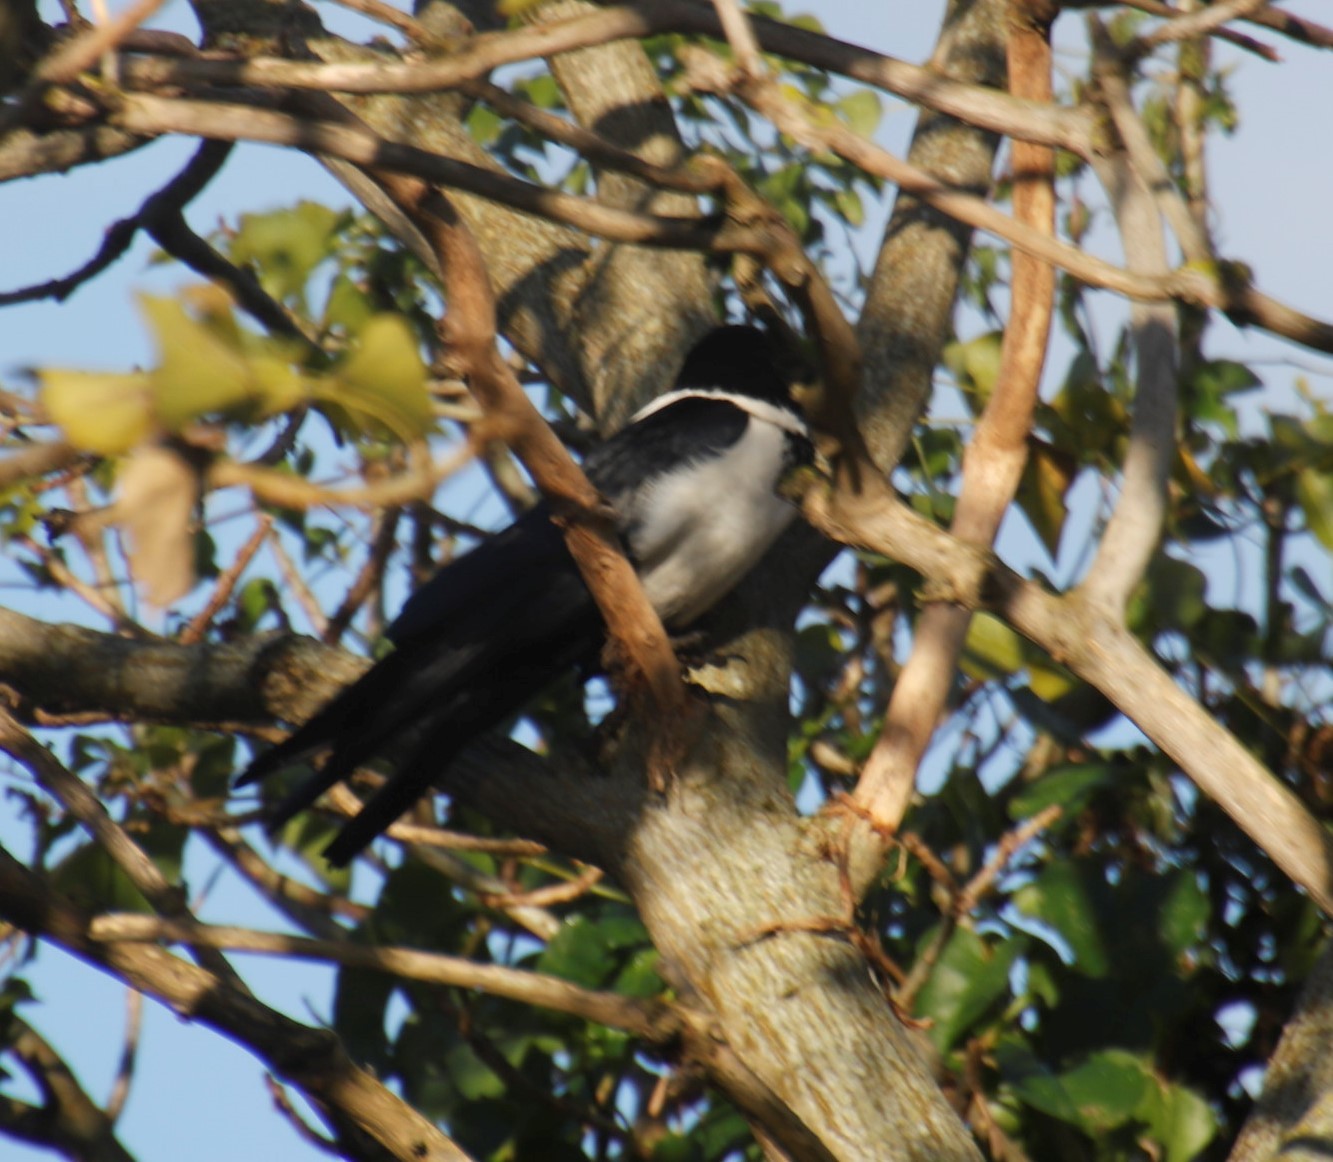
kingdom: Animalia
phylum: Chordata
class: Aves
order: Passeriformes
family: Corvidae
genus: Corvus
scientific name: Corvus albus
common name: Pied crow
